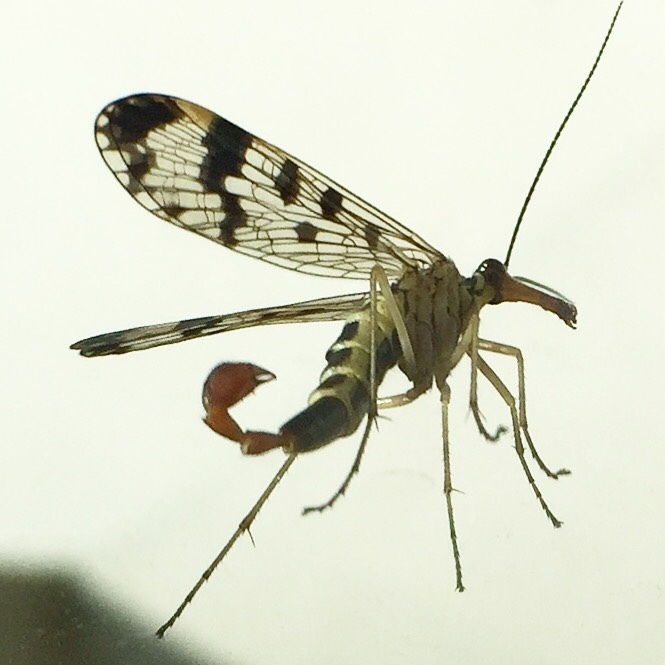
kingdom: Animalia
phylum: Arthropoda
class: Insecta
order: Mecoptera
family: Panorpidae
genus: Panorpa
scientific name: Panorpa communis
